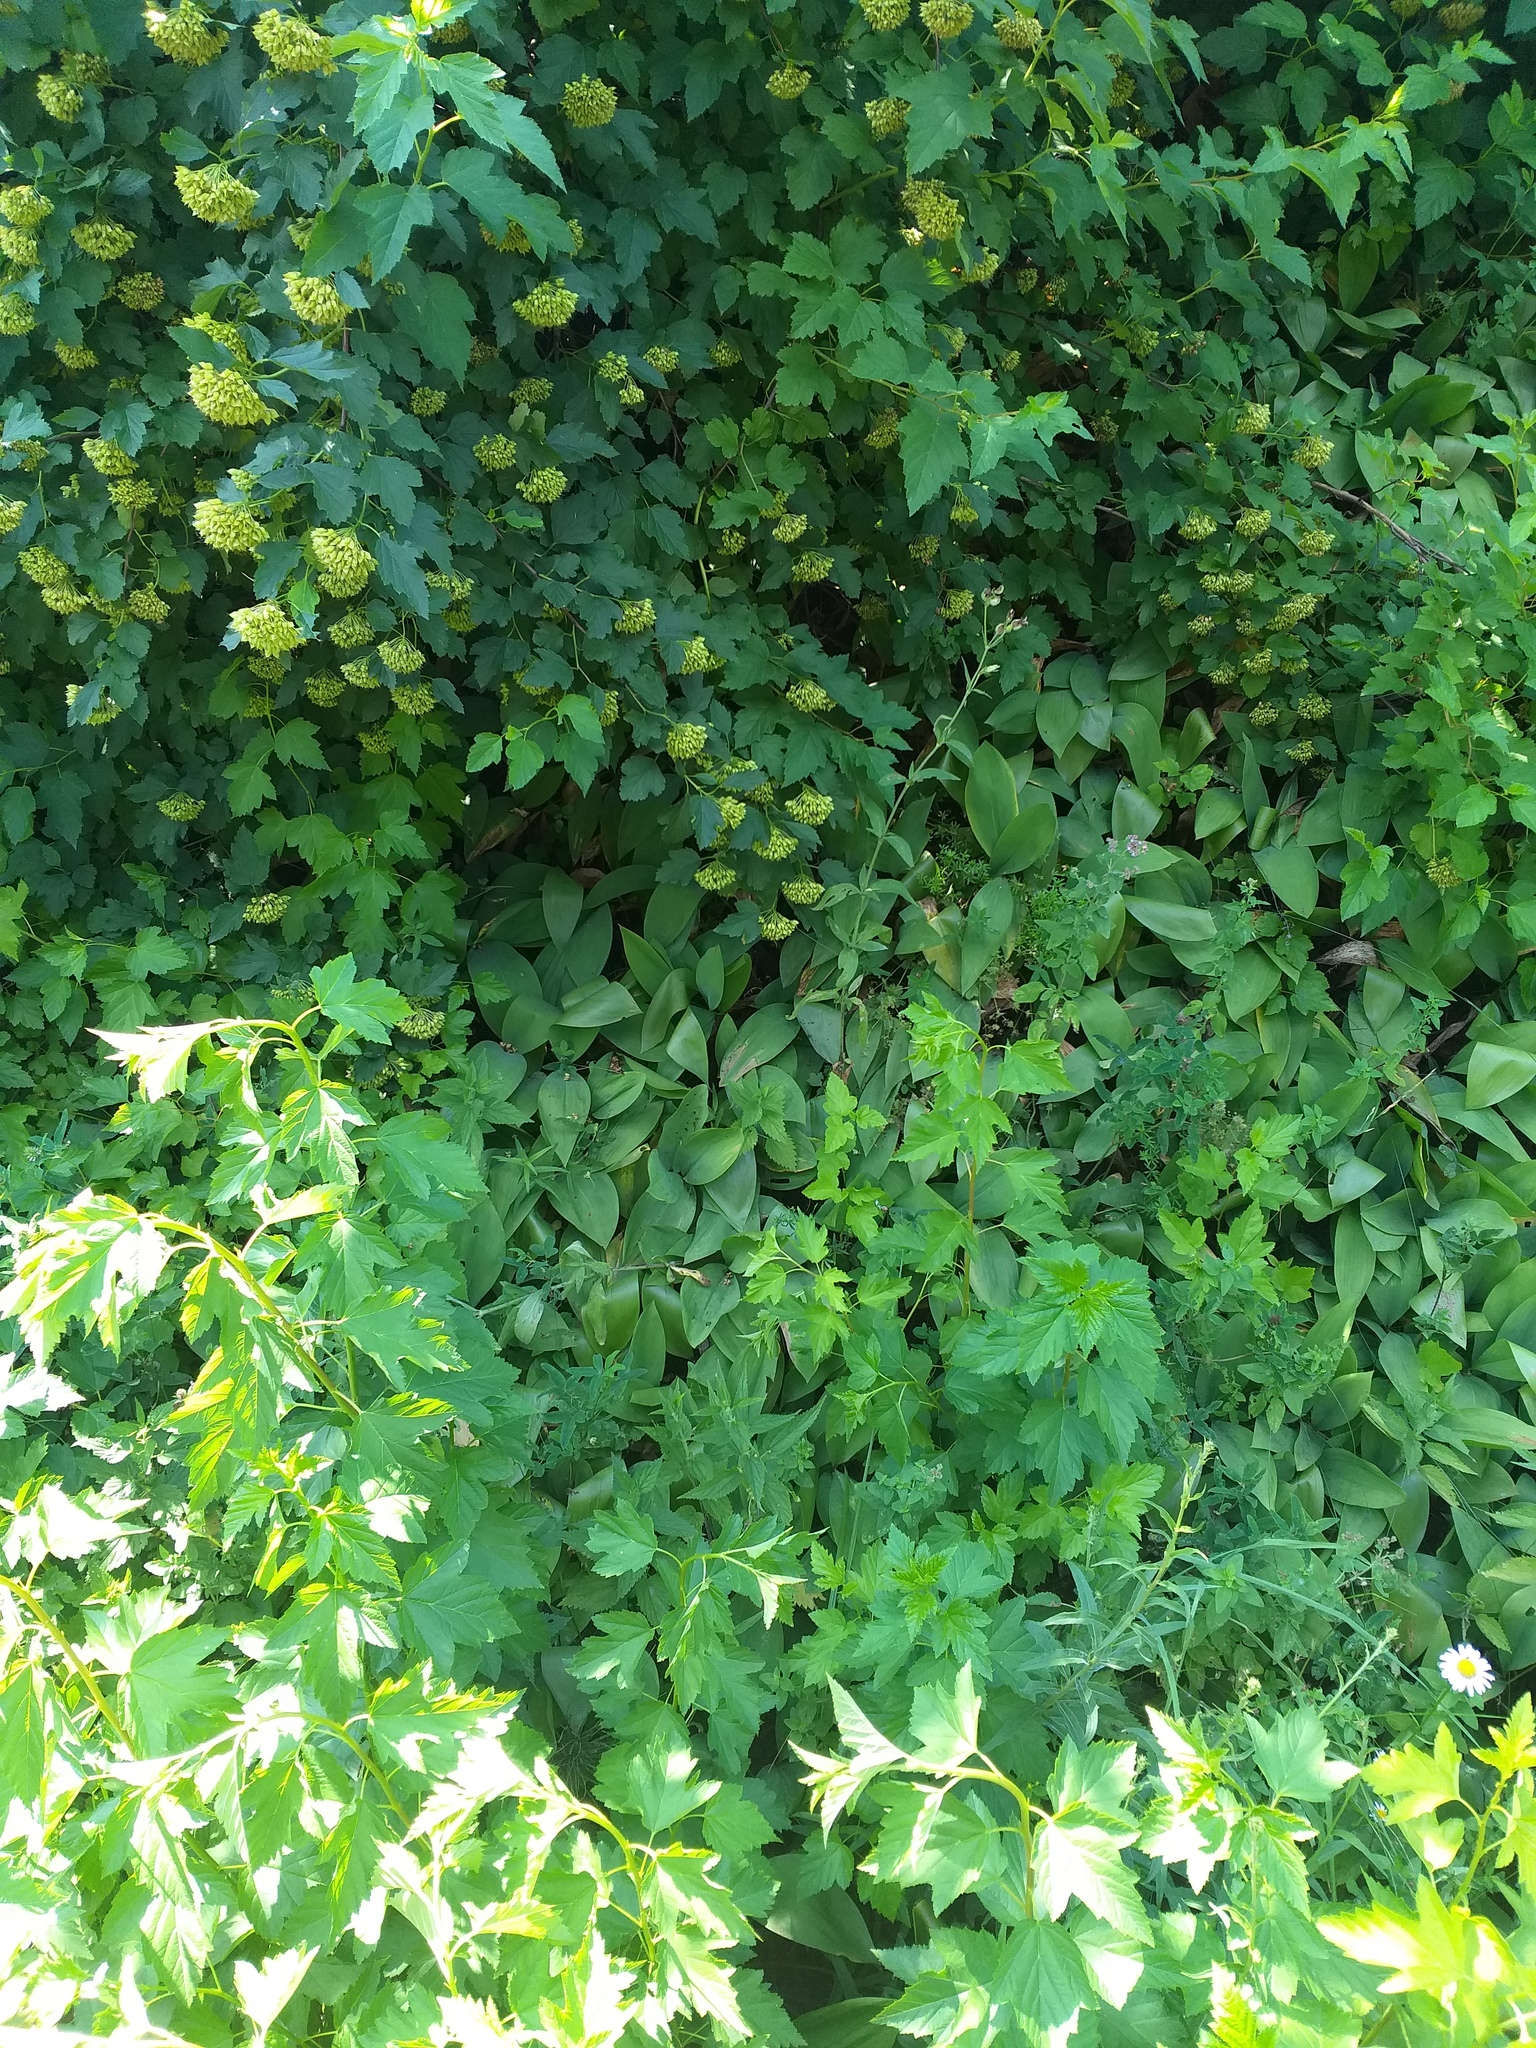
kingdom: Plantae
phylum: Tracheophyta
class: Liliopsida
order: Asparagales
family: Asparagaceae
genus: Convallaria
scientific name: Convallaria majalis
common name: Lily-of-the-valley
